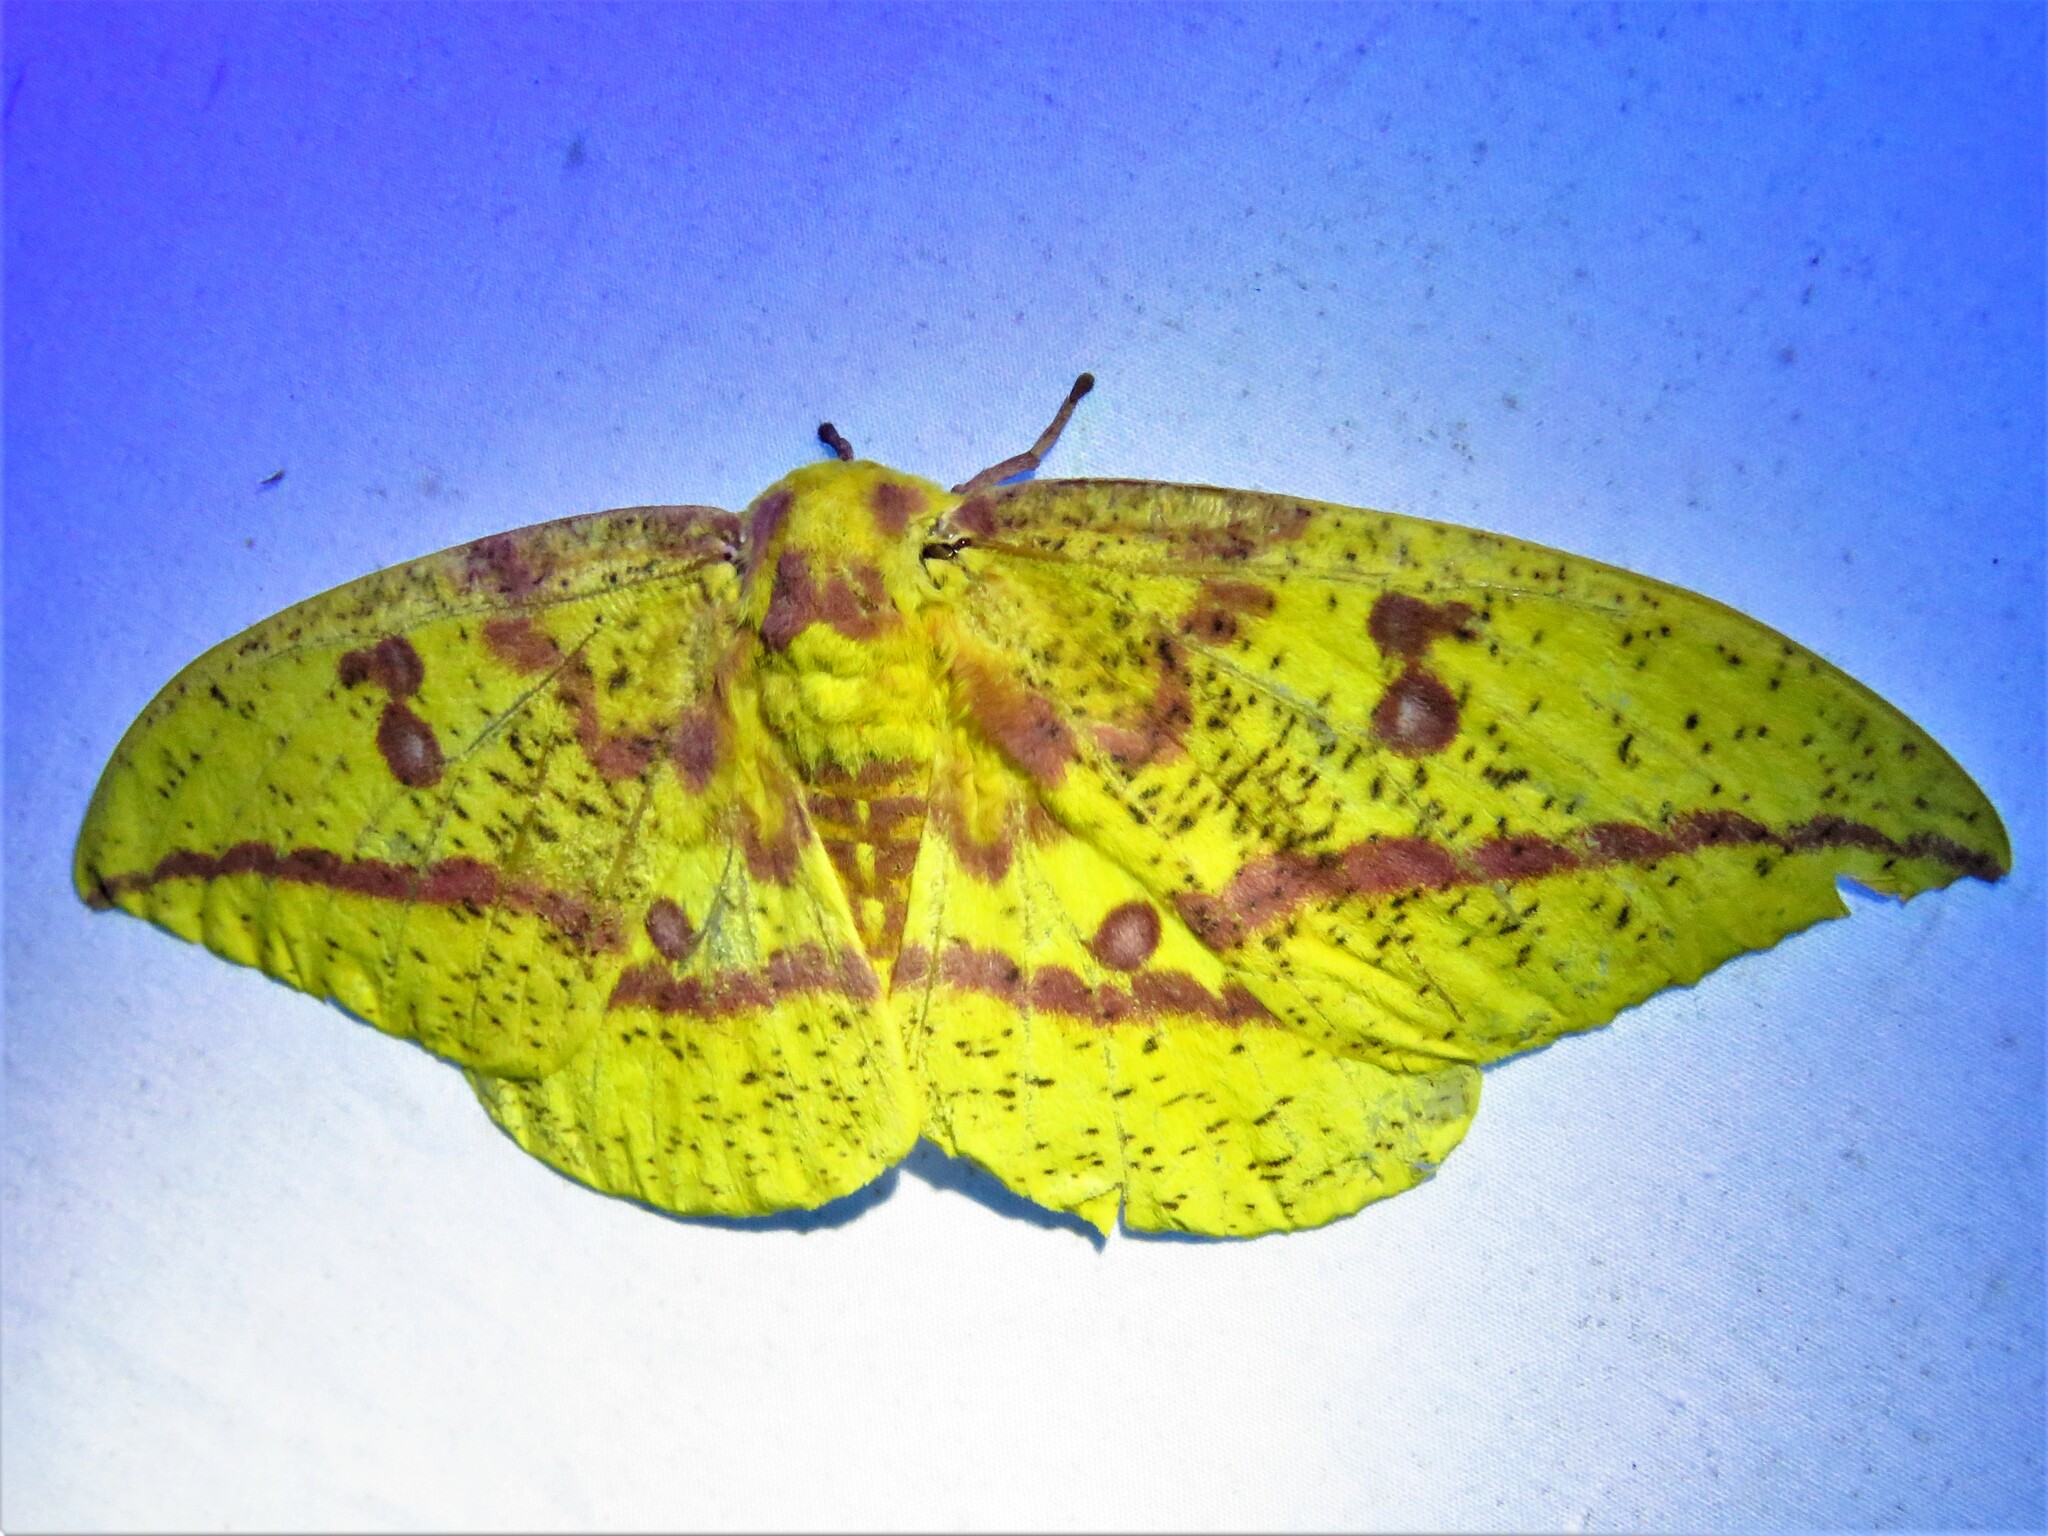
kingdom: Animalia
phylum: Arthropoda
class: Insecta
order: Lepidoptera
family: Saturniidae
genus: Eacles
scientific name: Eacles imperialis
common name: Imperial moth
